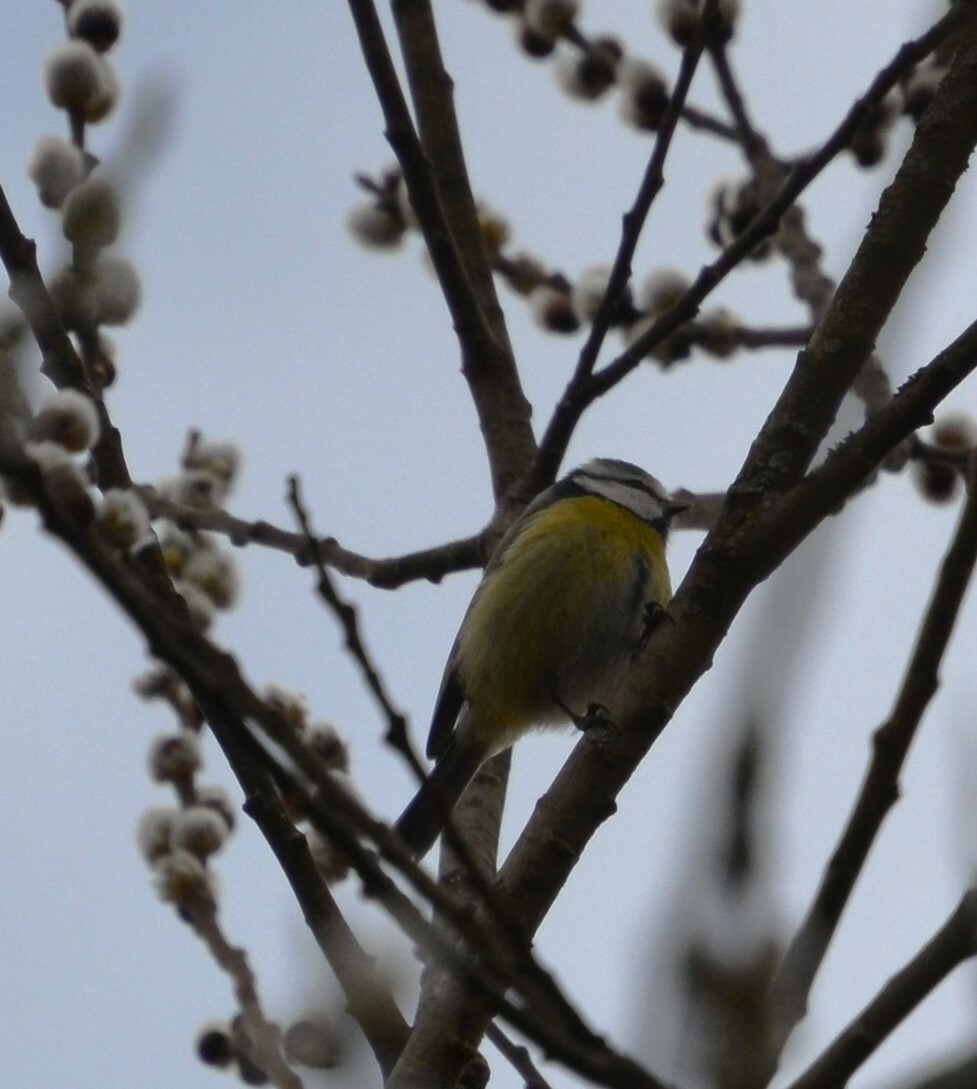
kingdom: Animalia
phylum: Chordata
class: Aves
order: Passeriformes
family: Paridae
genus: Cyanistes
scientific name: Cyanistes caeruleus
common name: Eurasian blue tit
